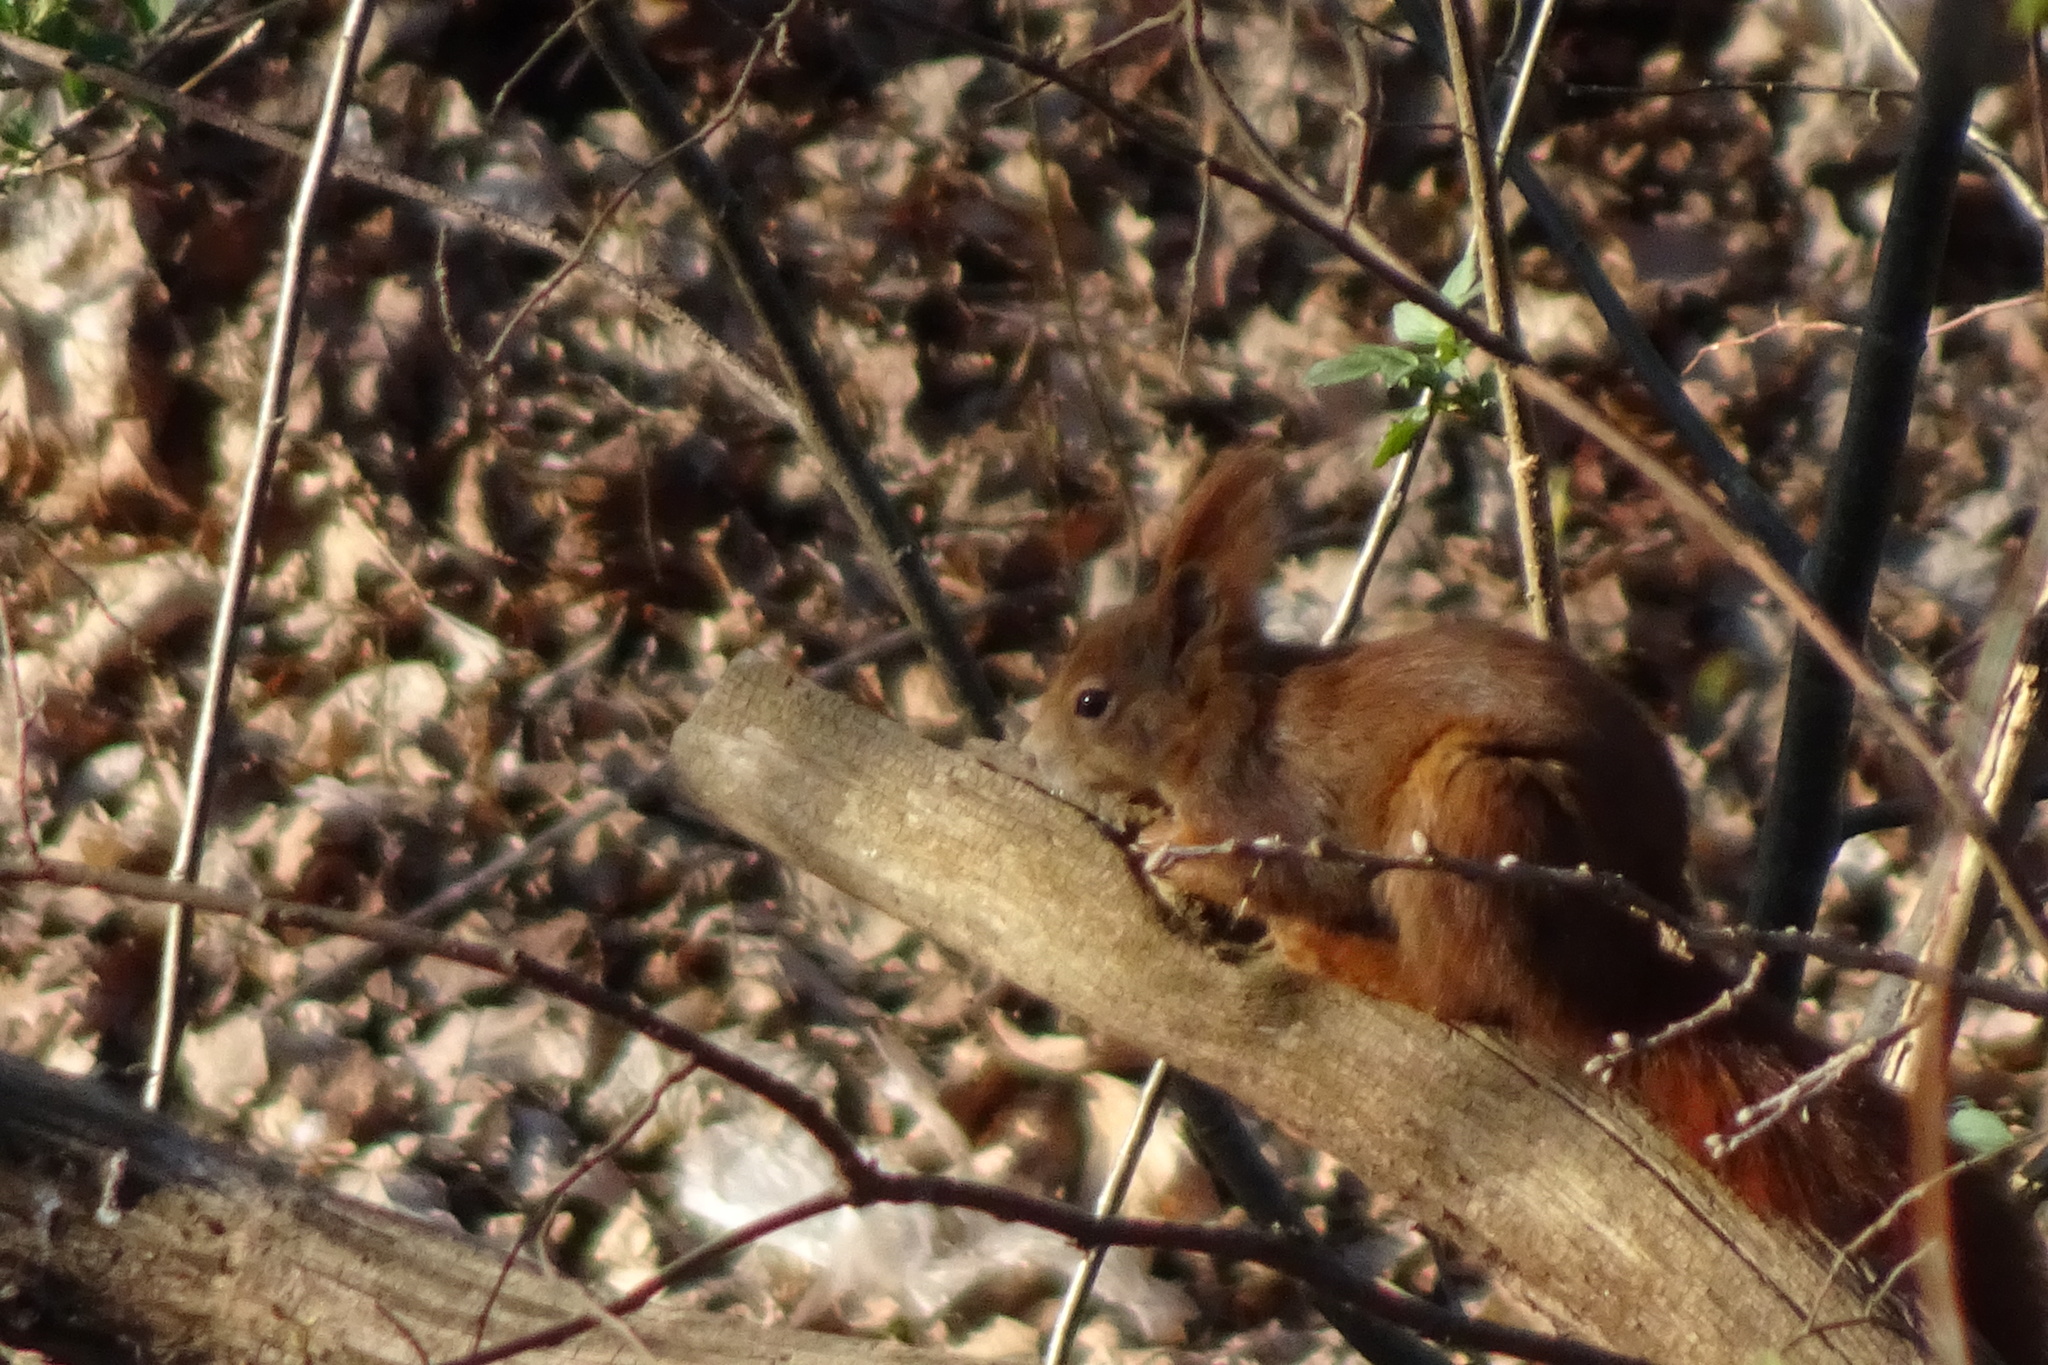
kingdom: Animalia
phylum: Chordata
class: Mammalia
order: Rodentia
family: Sciuridae
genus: Sciurus
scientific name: Sciurus vulgaris
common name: Eurasian red squirrel
